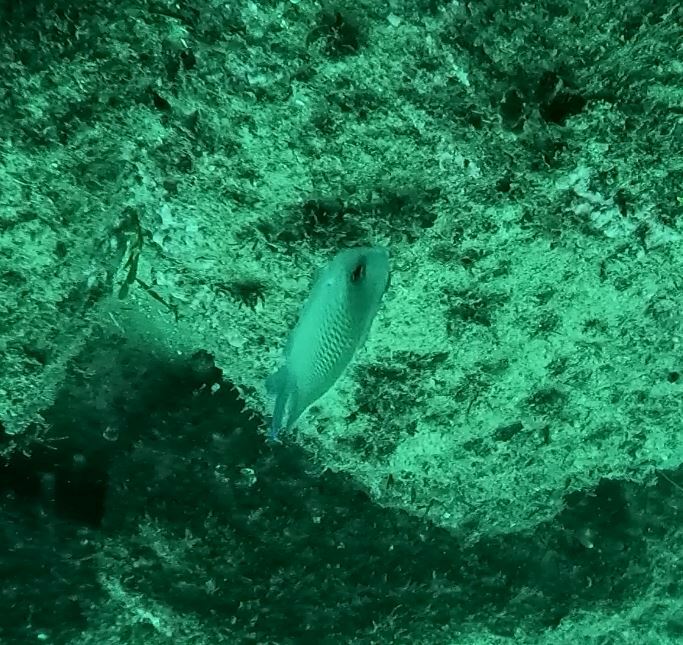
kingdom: Animalia
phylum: Chordata
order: Perciformes
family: Pomacentridae
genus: Mecaenichthys
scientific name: Mecaenichthys immaculatus
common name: Immaculate damsel
